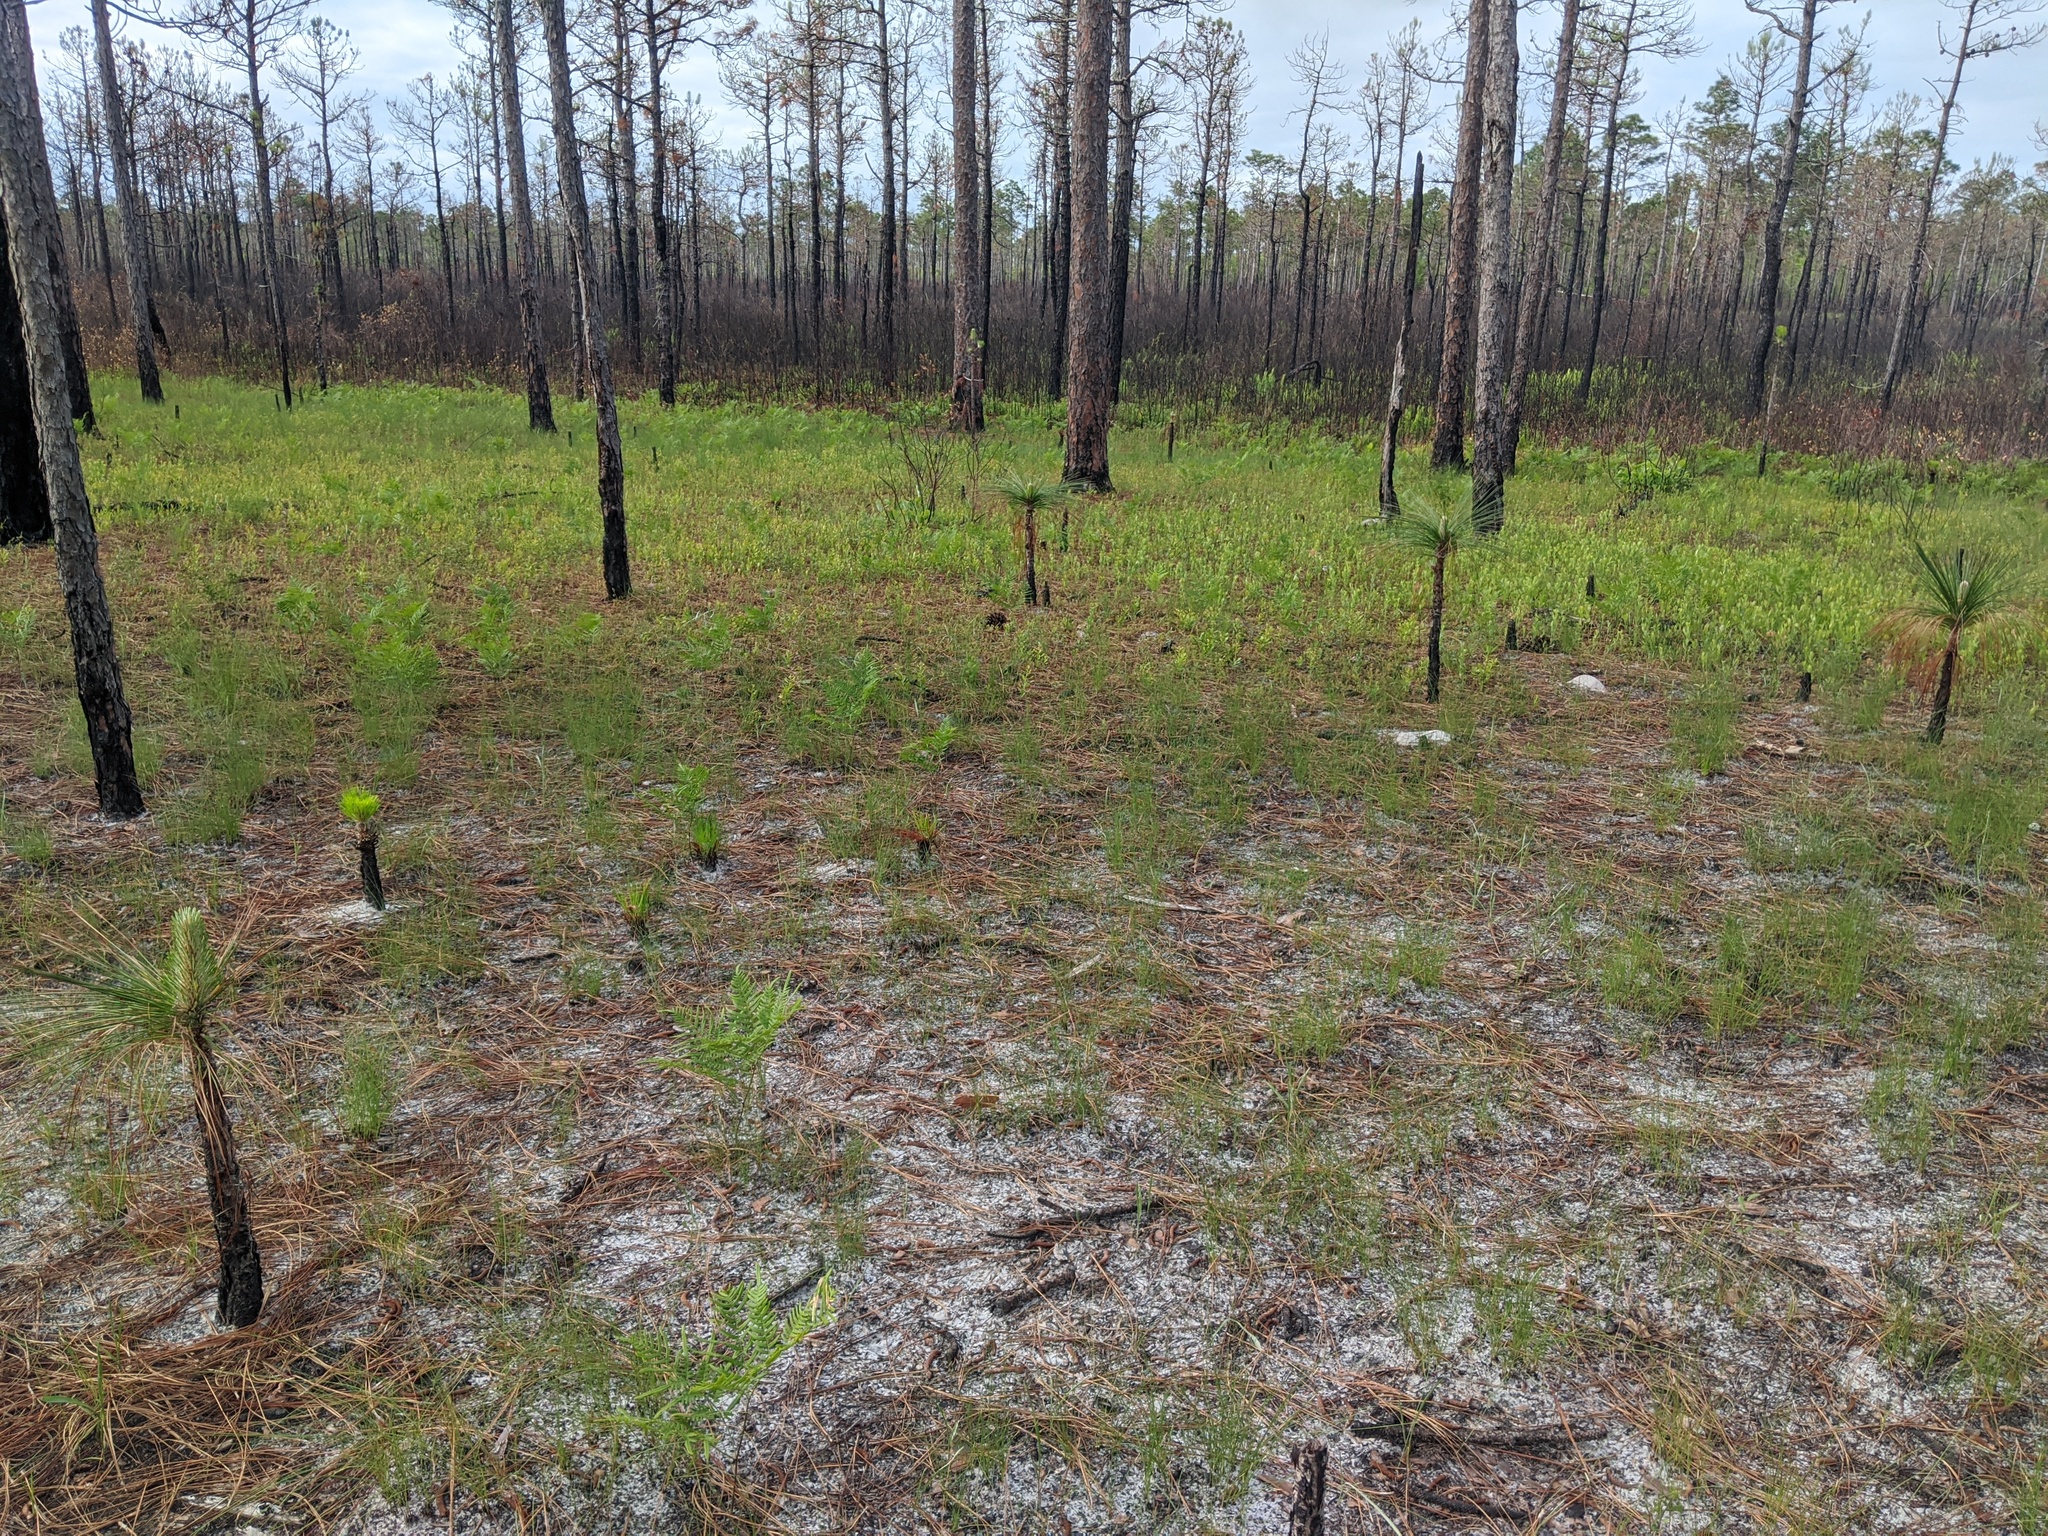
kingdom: Plantae
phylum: Tracheophyta
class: Pinopsida
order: Pinales
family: Pinaceae
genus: Pinus
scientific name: Pinus palustris
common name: Longleaf pine
